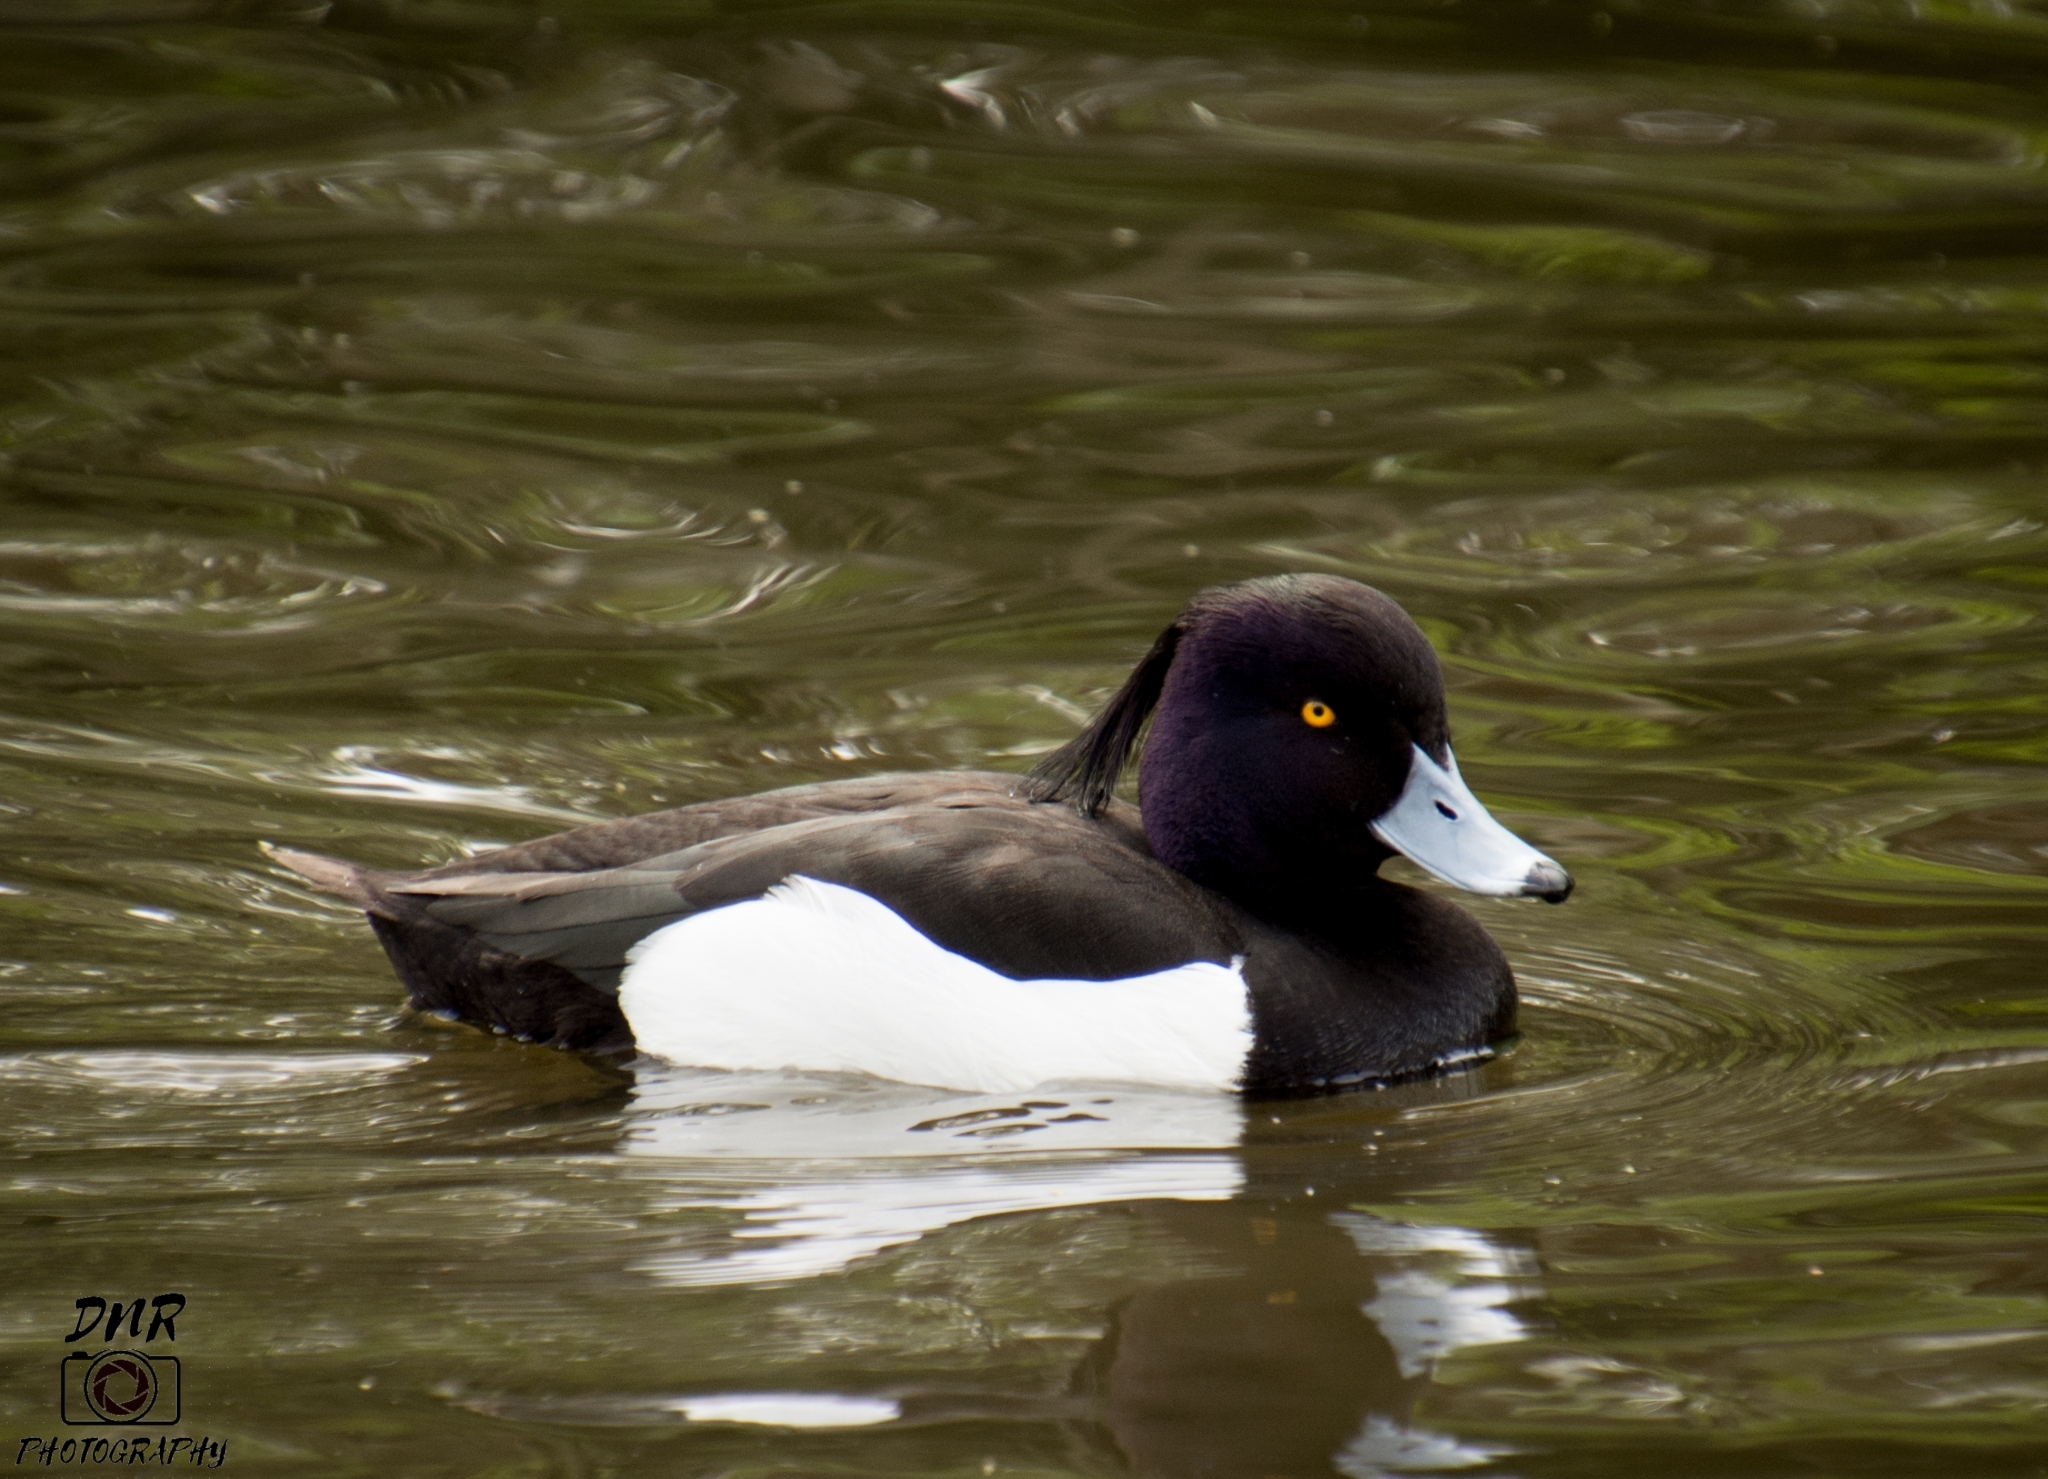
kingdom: Animalia
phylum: Chordata
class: Aves
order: Anseriformes
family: Anatidae
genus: Aythya
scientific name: Aythya fuligula
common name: Tufted duck
